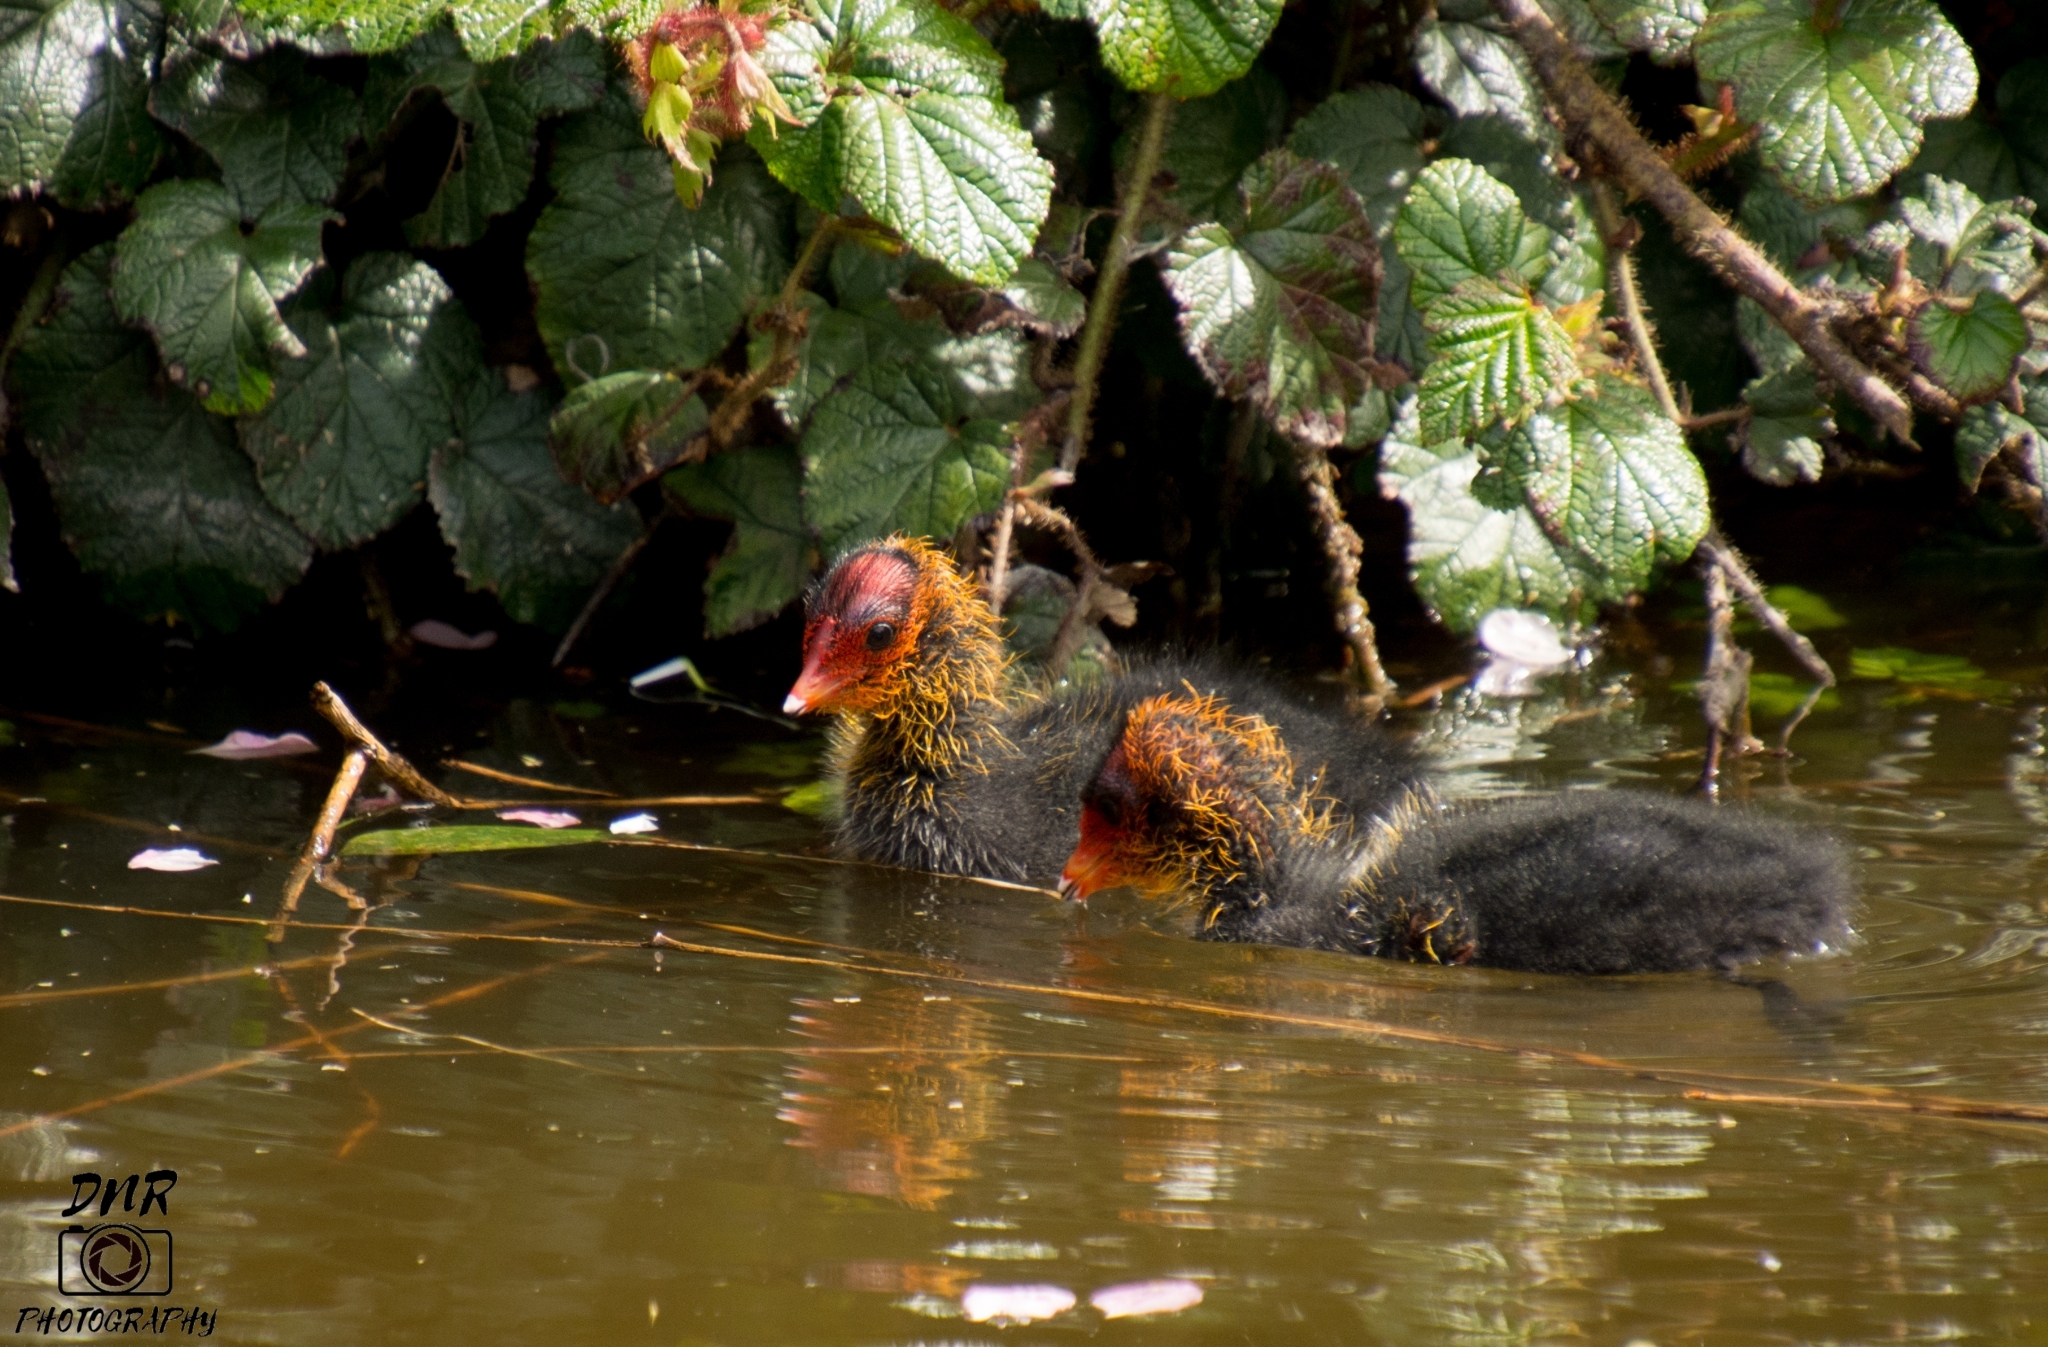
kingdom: Animalia
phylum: Chordata
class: Aves
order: Gruiformes
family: Rallidae
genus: Fulica
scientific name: Fulica atra
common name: Eurasian coot
